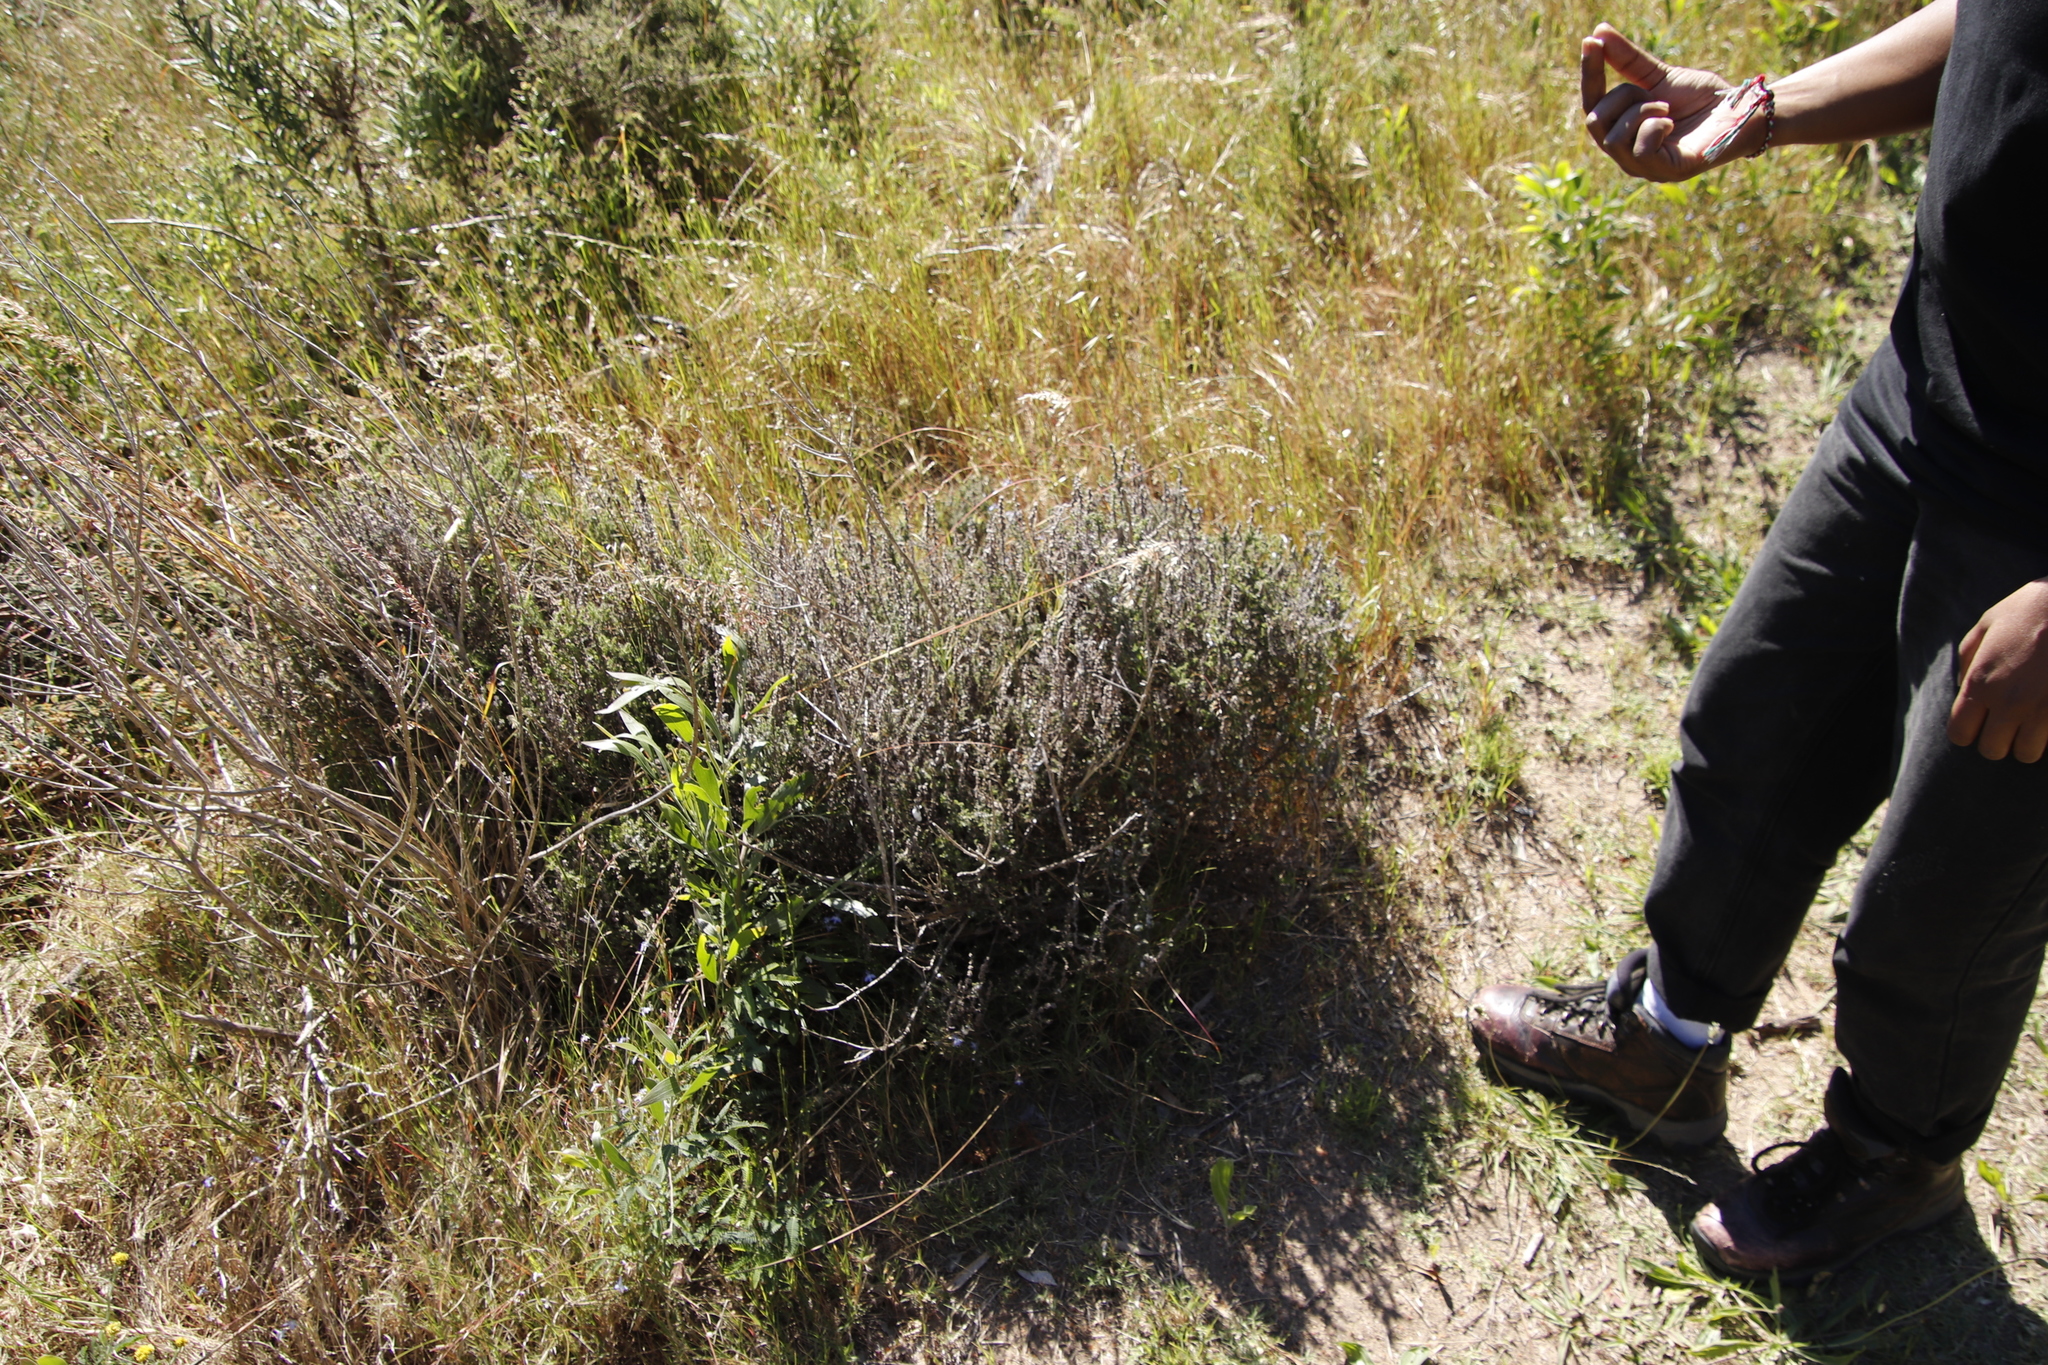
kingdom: Plantae
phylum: Tracheophyta
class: Magnoliopsida
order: Asterales
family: Asteraceae
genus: Seriphium
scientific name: Seriphium cinereum
